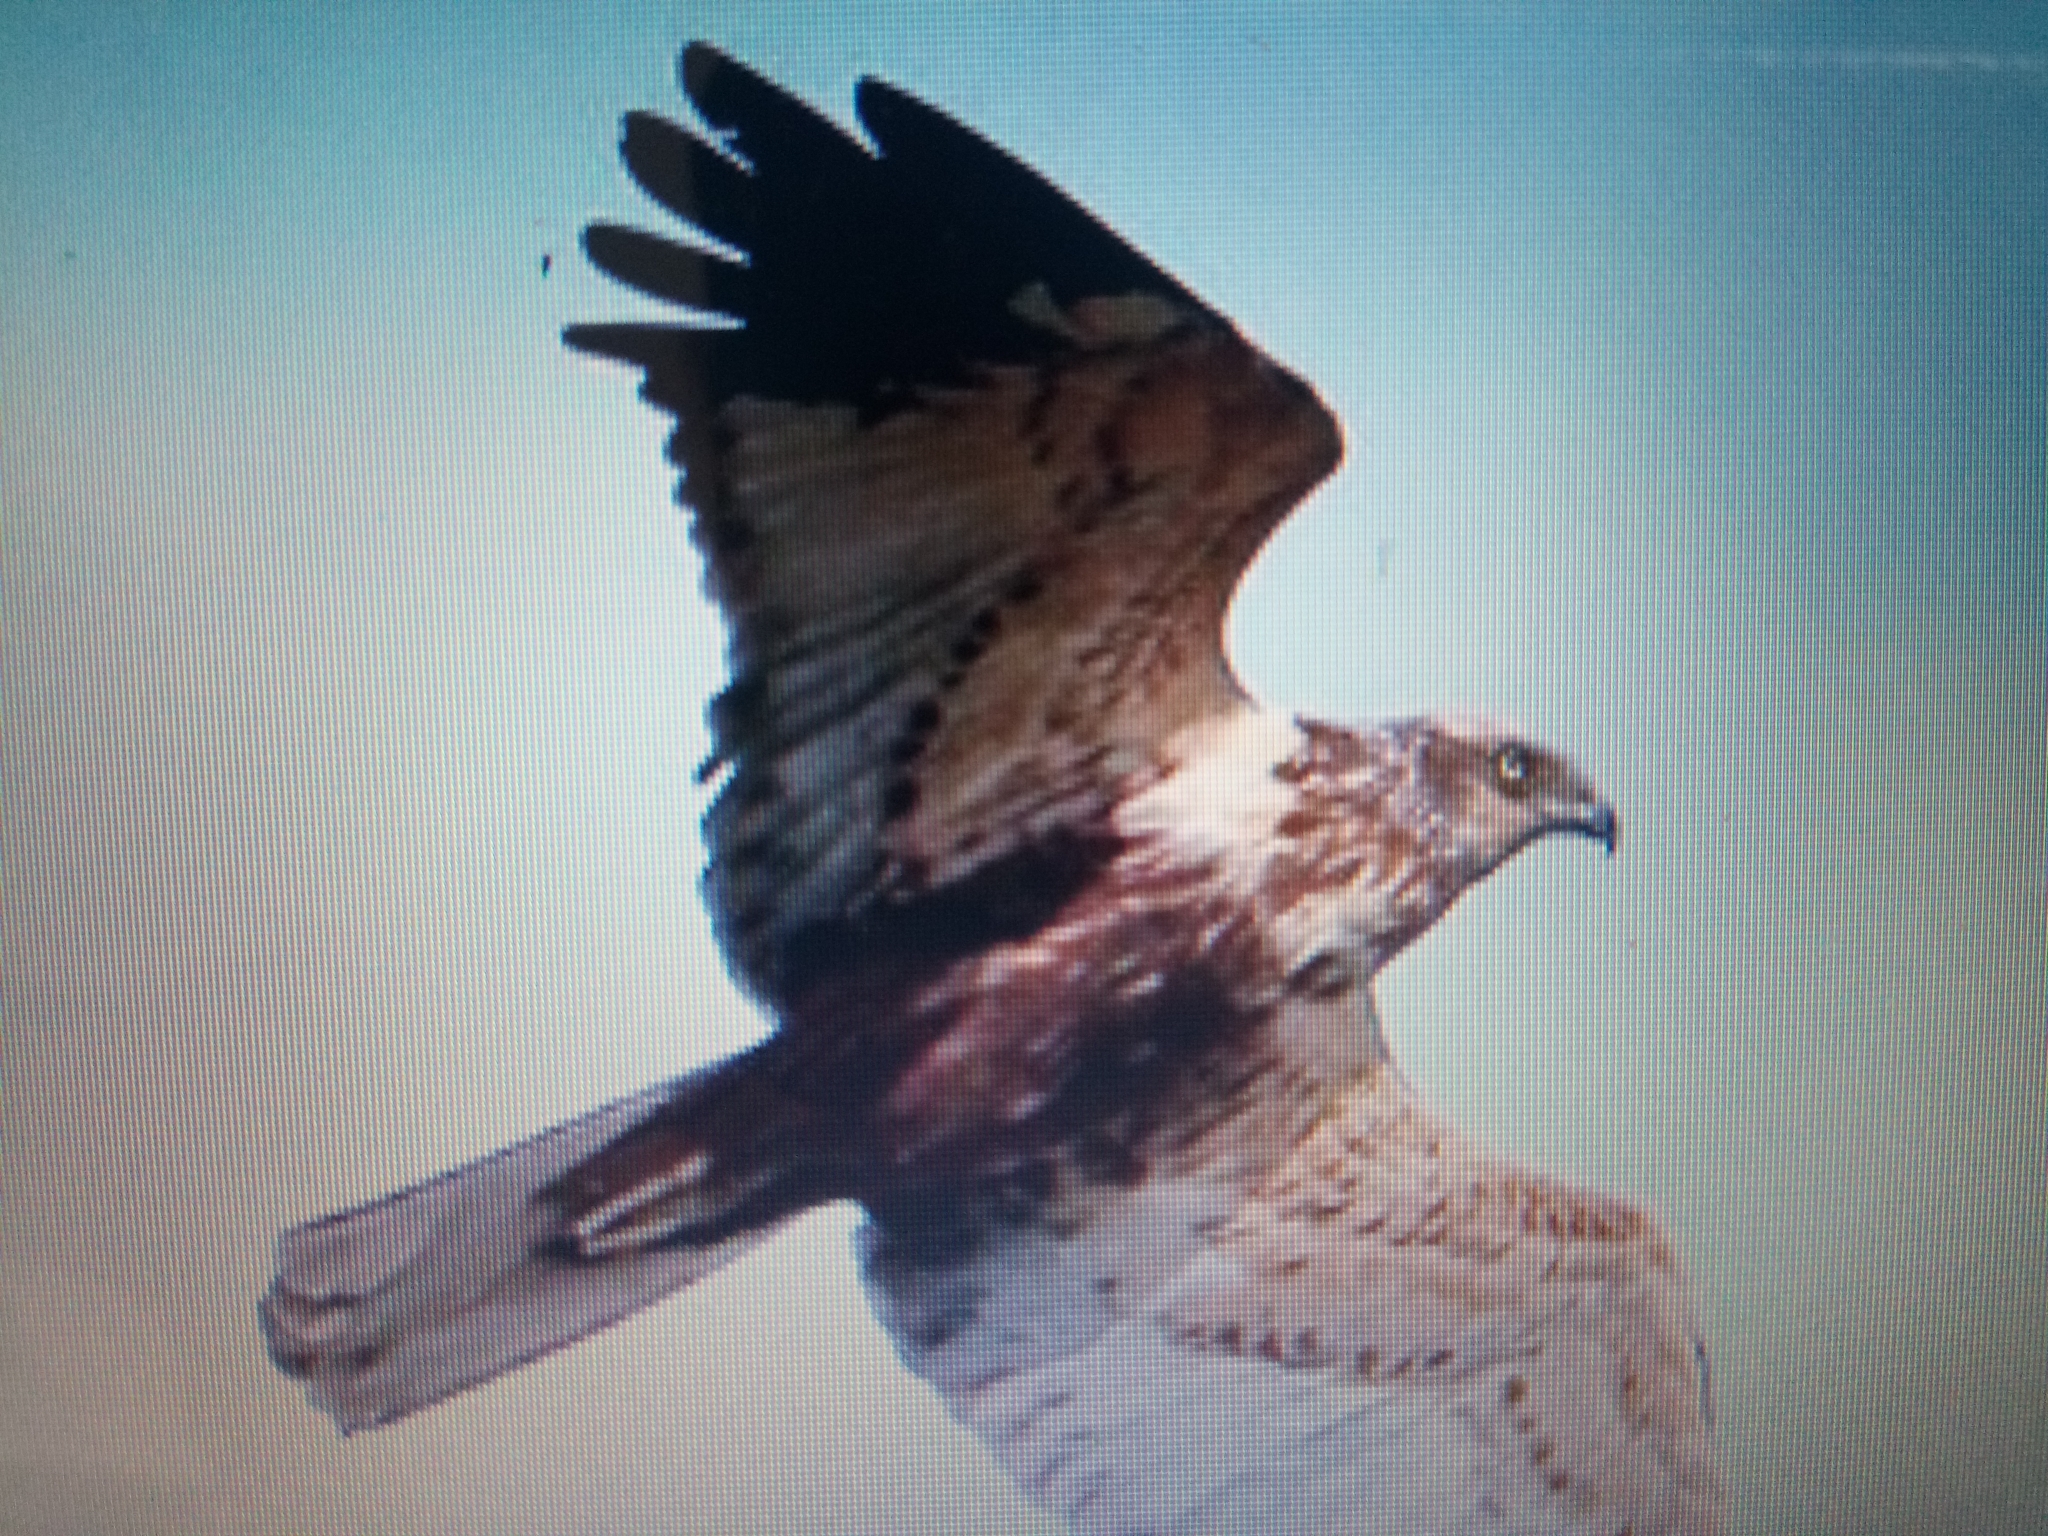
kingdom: Animalia
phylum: Chordata
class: Aves
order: Accipitriformes
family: Accipitridae
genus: Circus
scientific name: Circus aeruginosus
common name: Western marsh harrier
